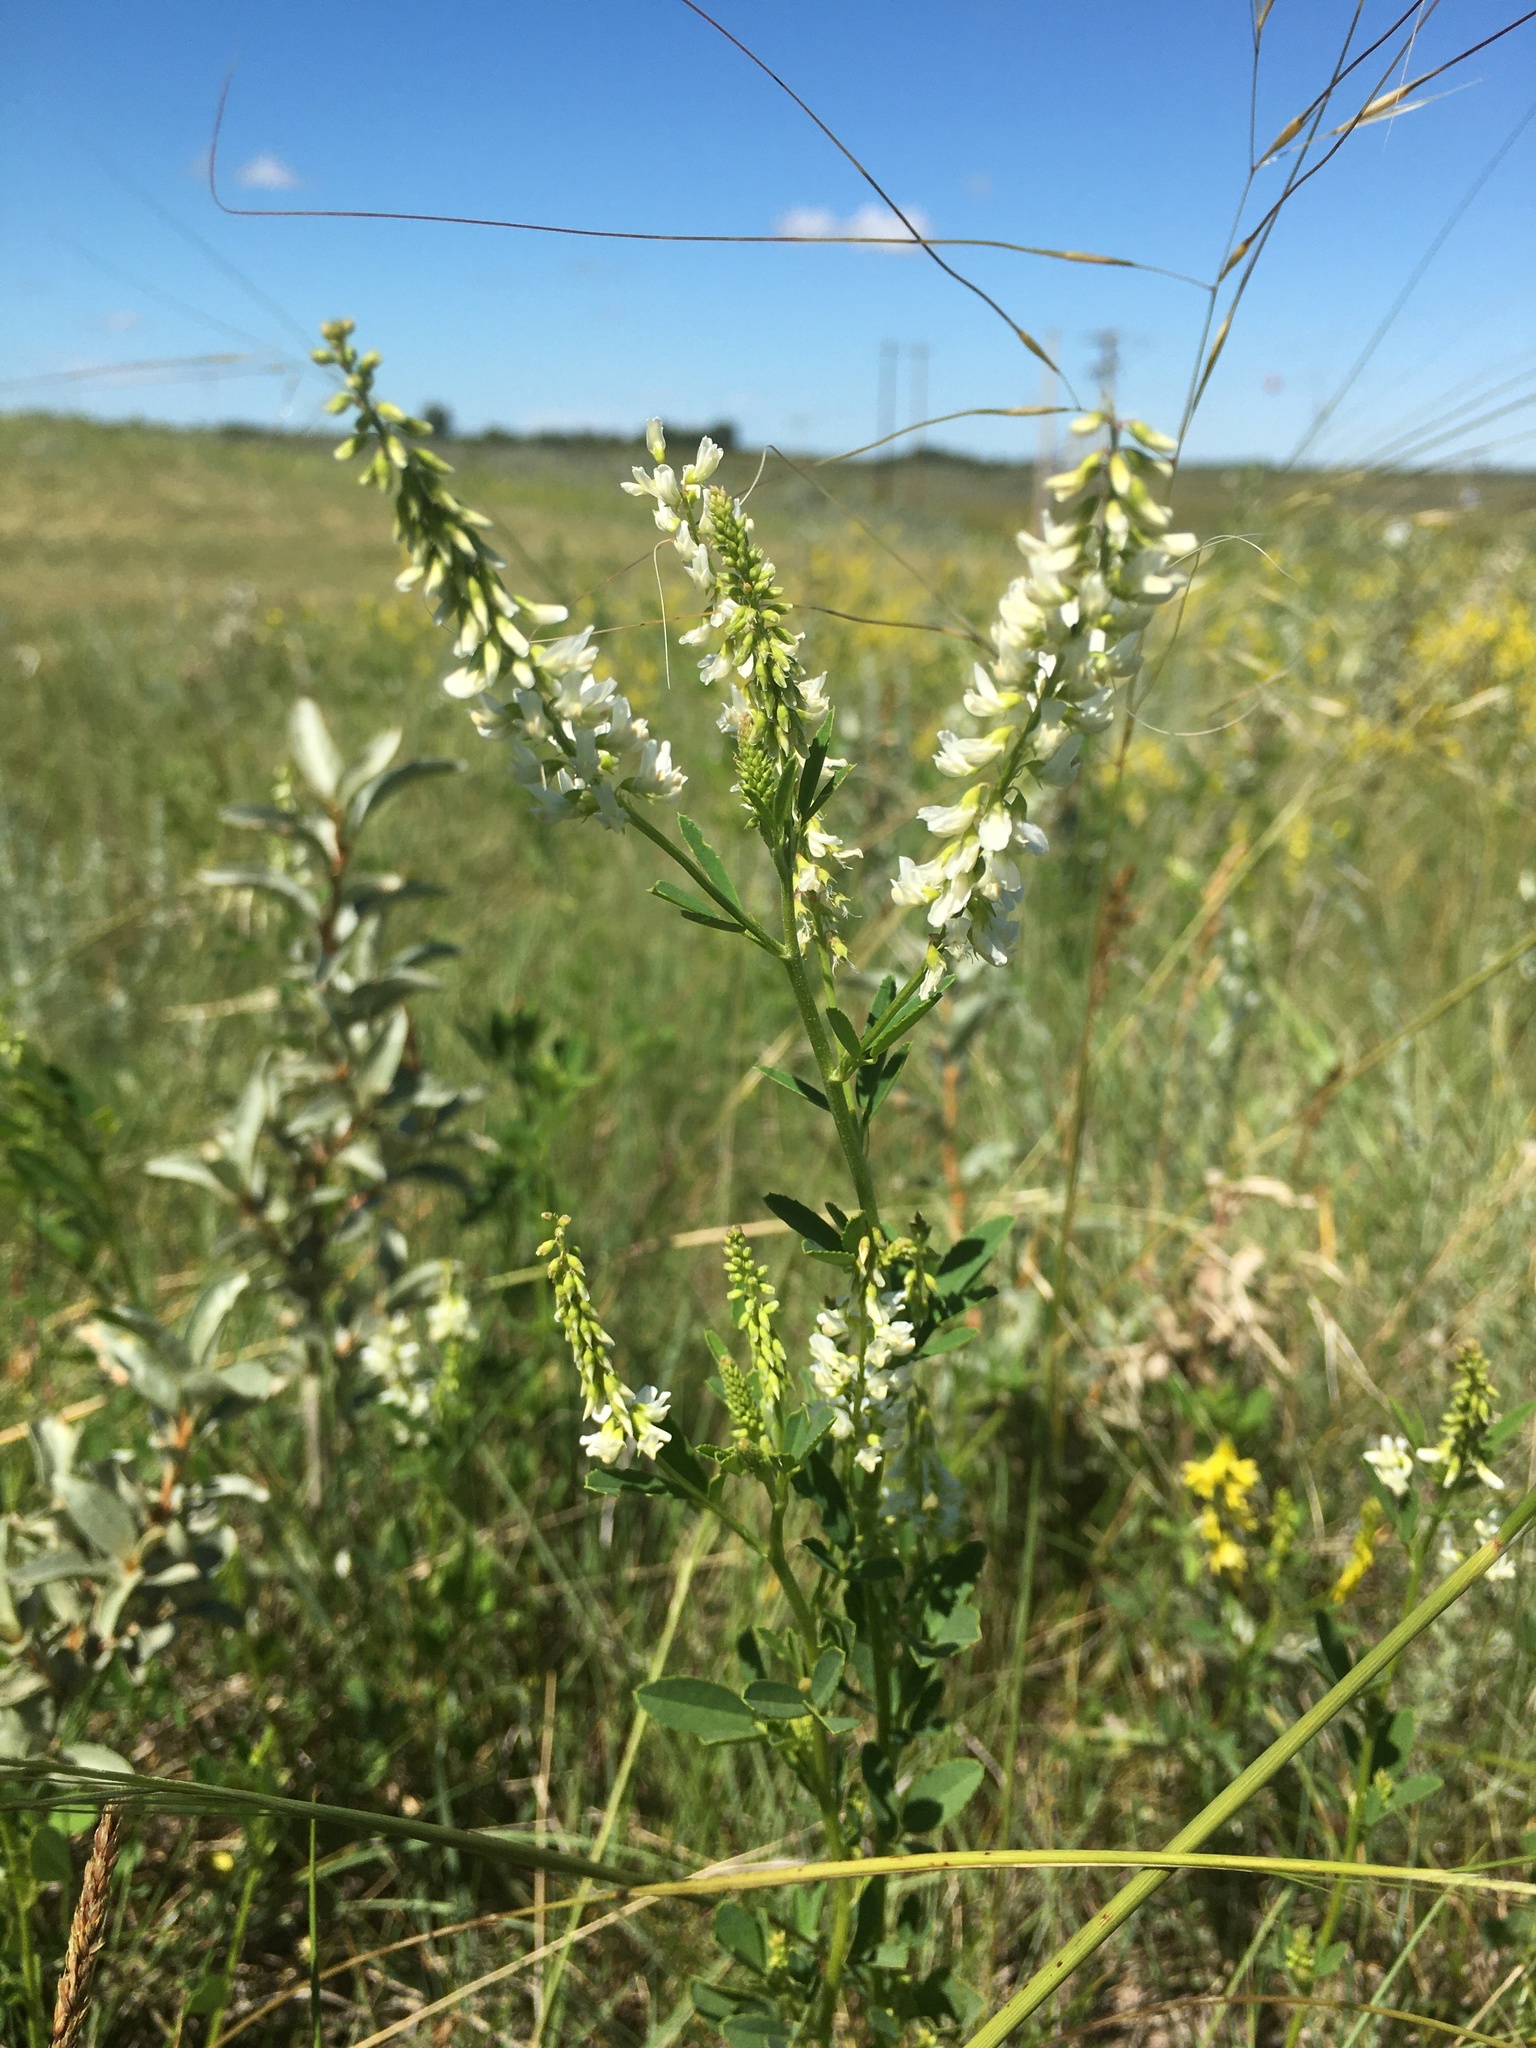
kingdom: Plantae
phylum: Tracheophyta
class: Magnoliopsida
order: Fabales
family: Fabaceae
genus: Melilotus
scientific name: Melilotus albus
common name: White melilot
